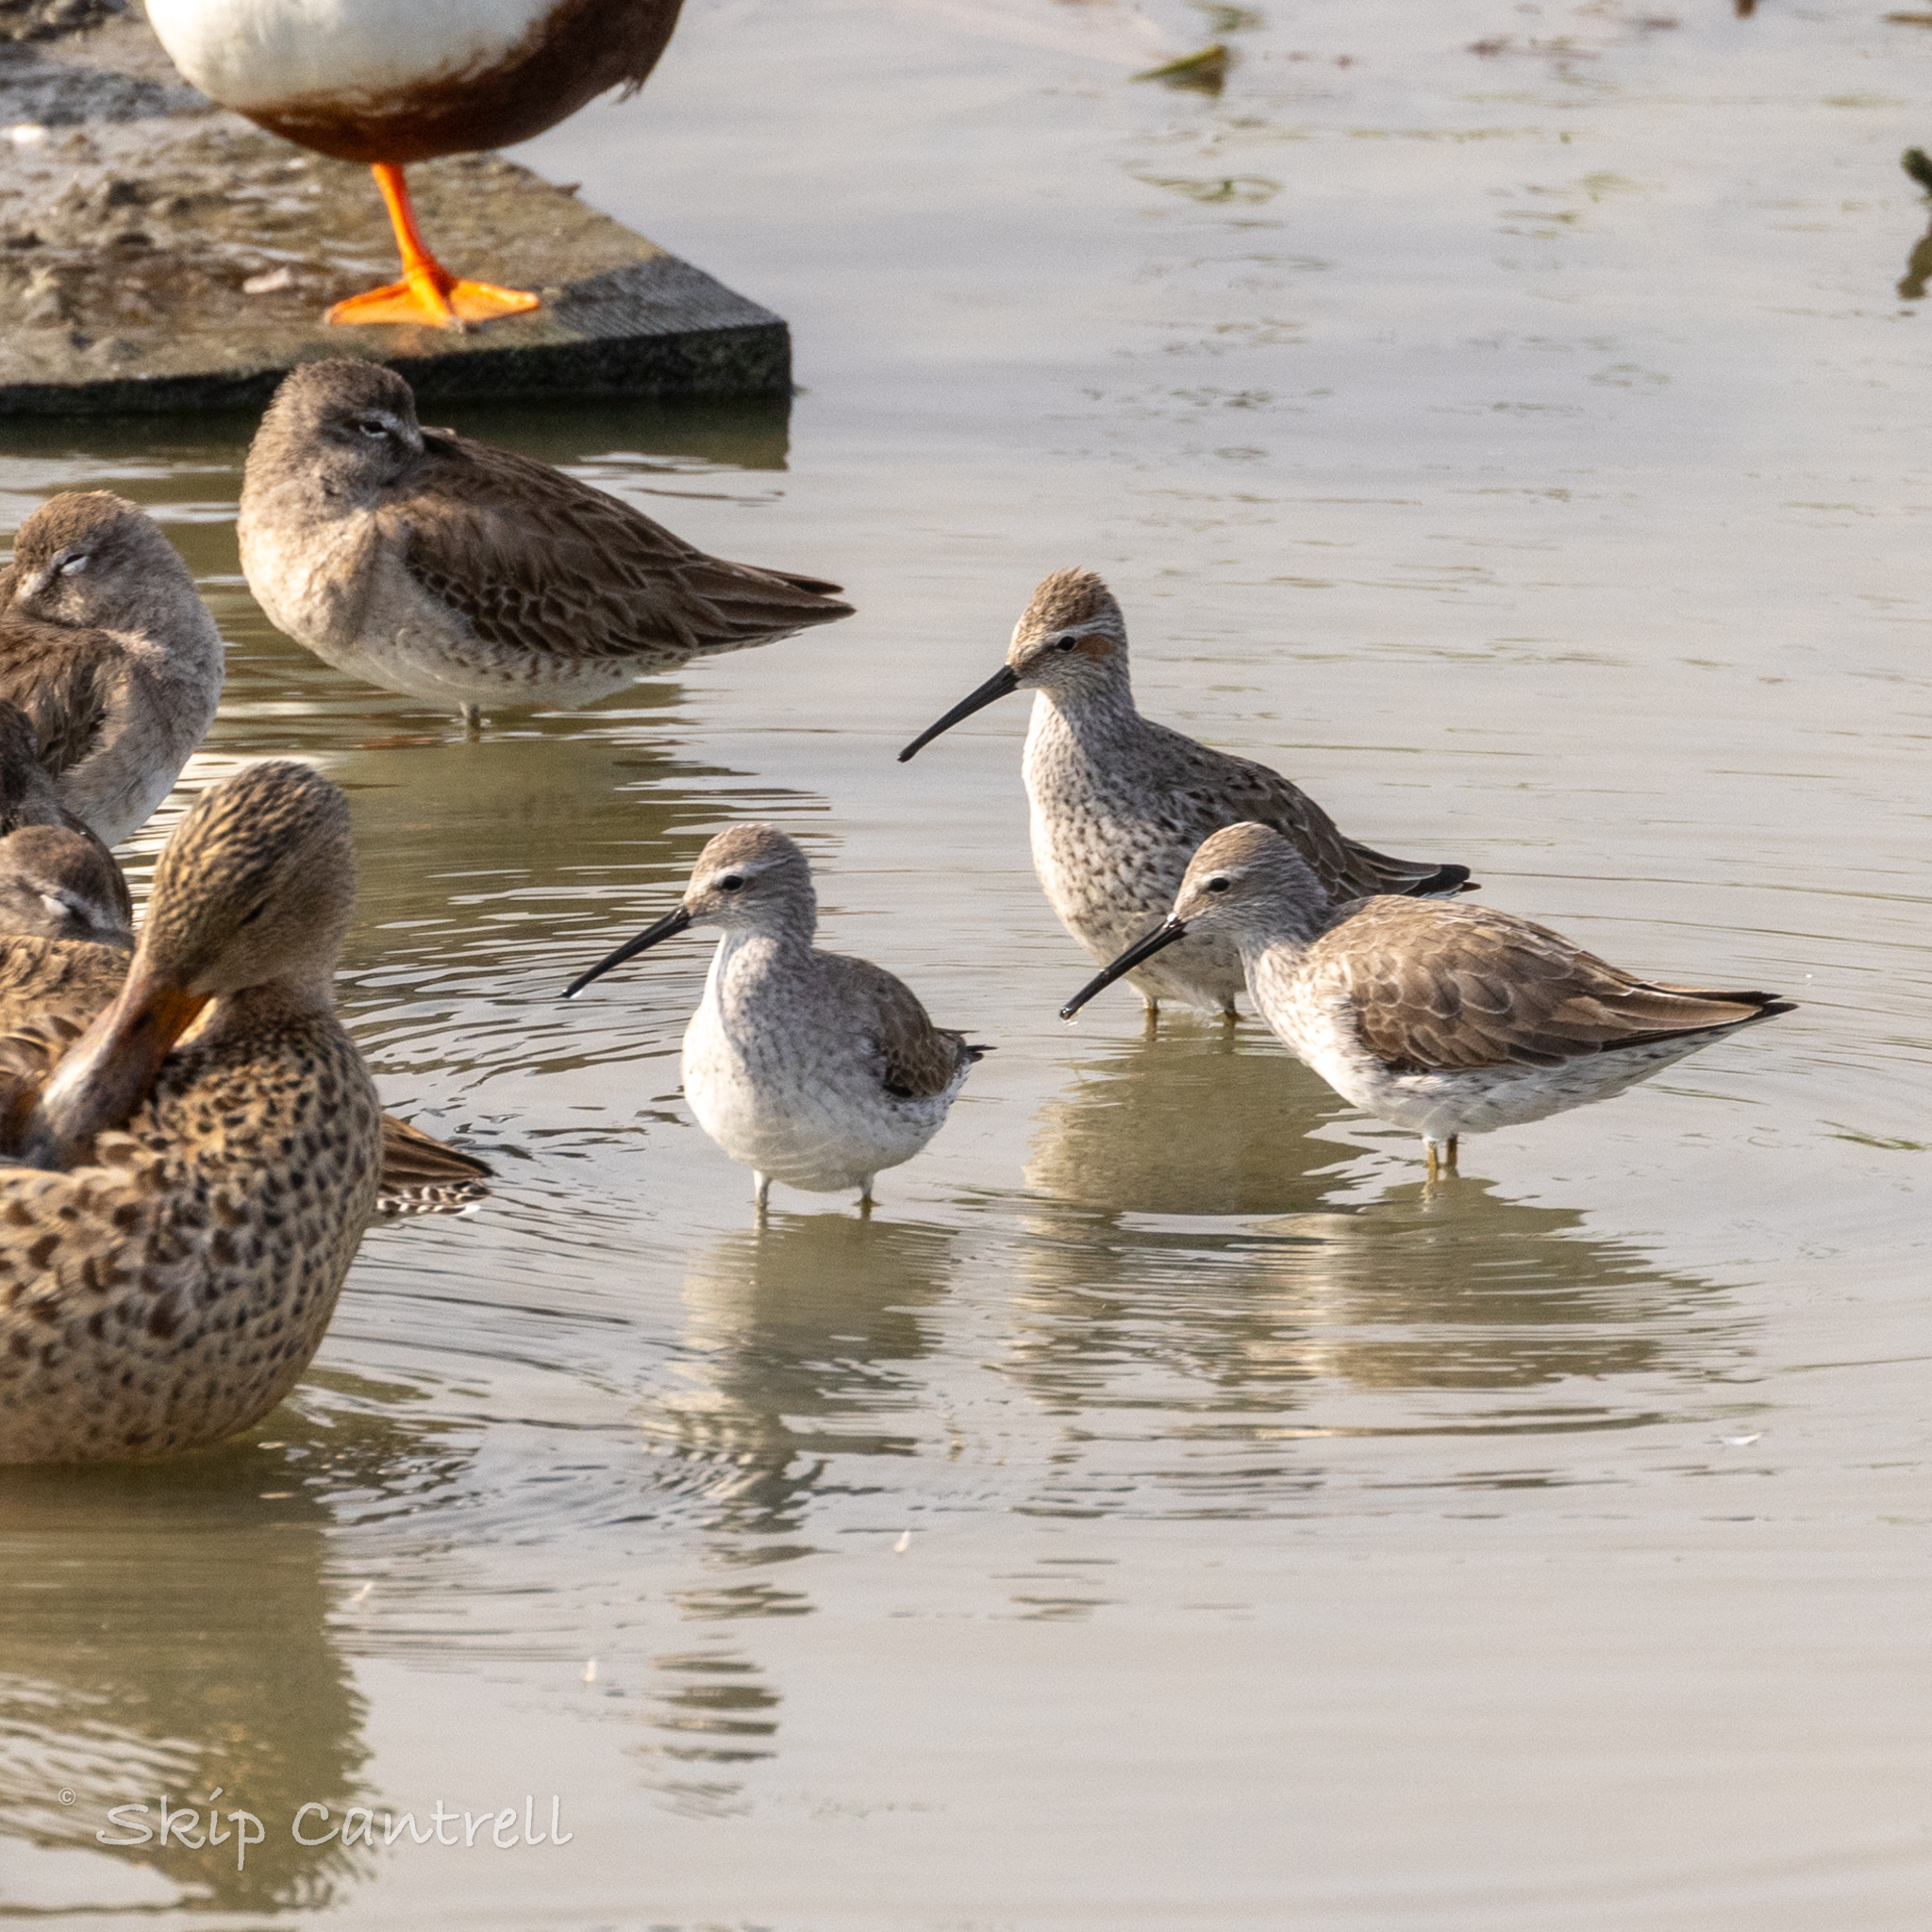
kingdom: Animalia
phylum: Chordata
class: Aves
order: Charadriiformes
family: Scolopacidae
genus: Calidris
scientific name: Calidris himantopus
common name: Stilt sandpiper
